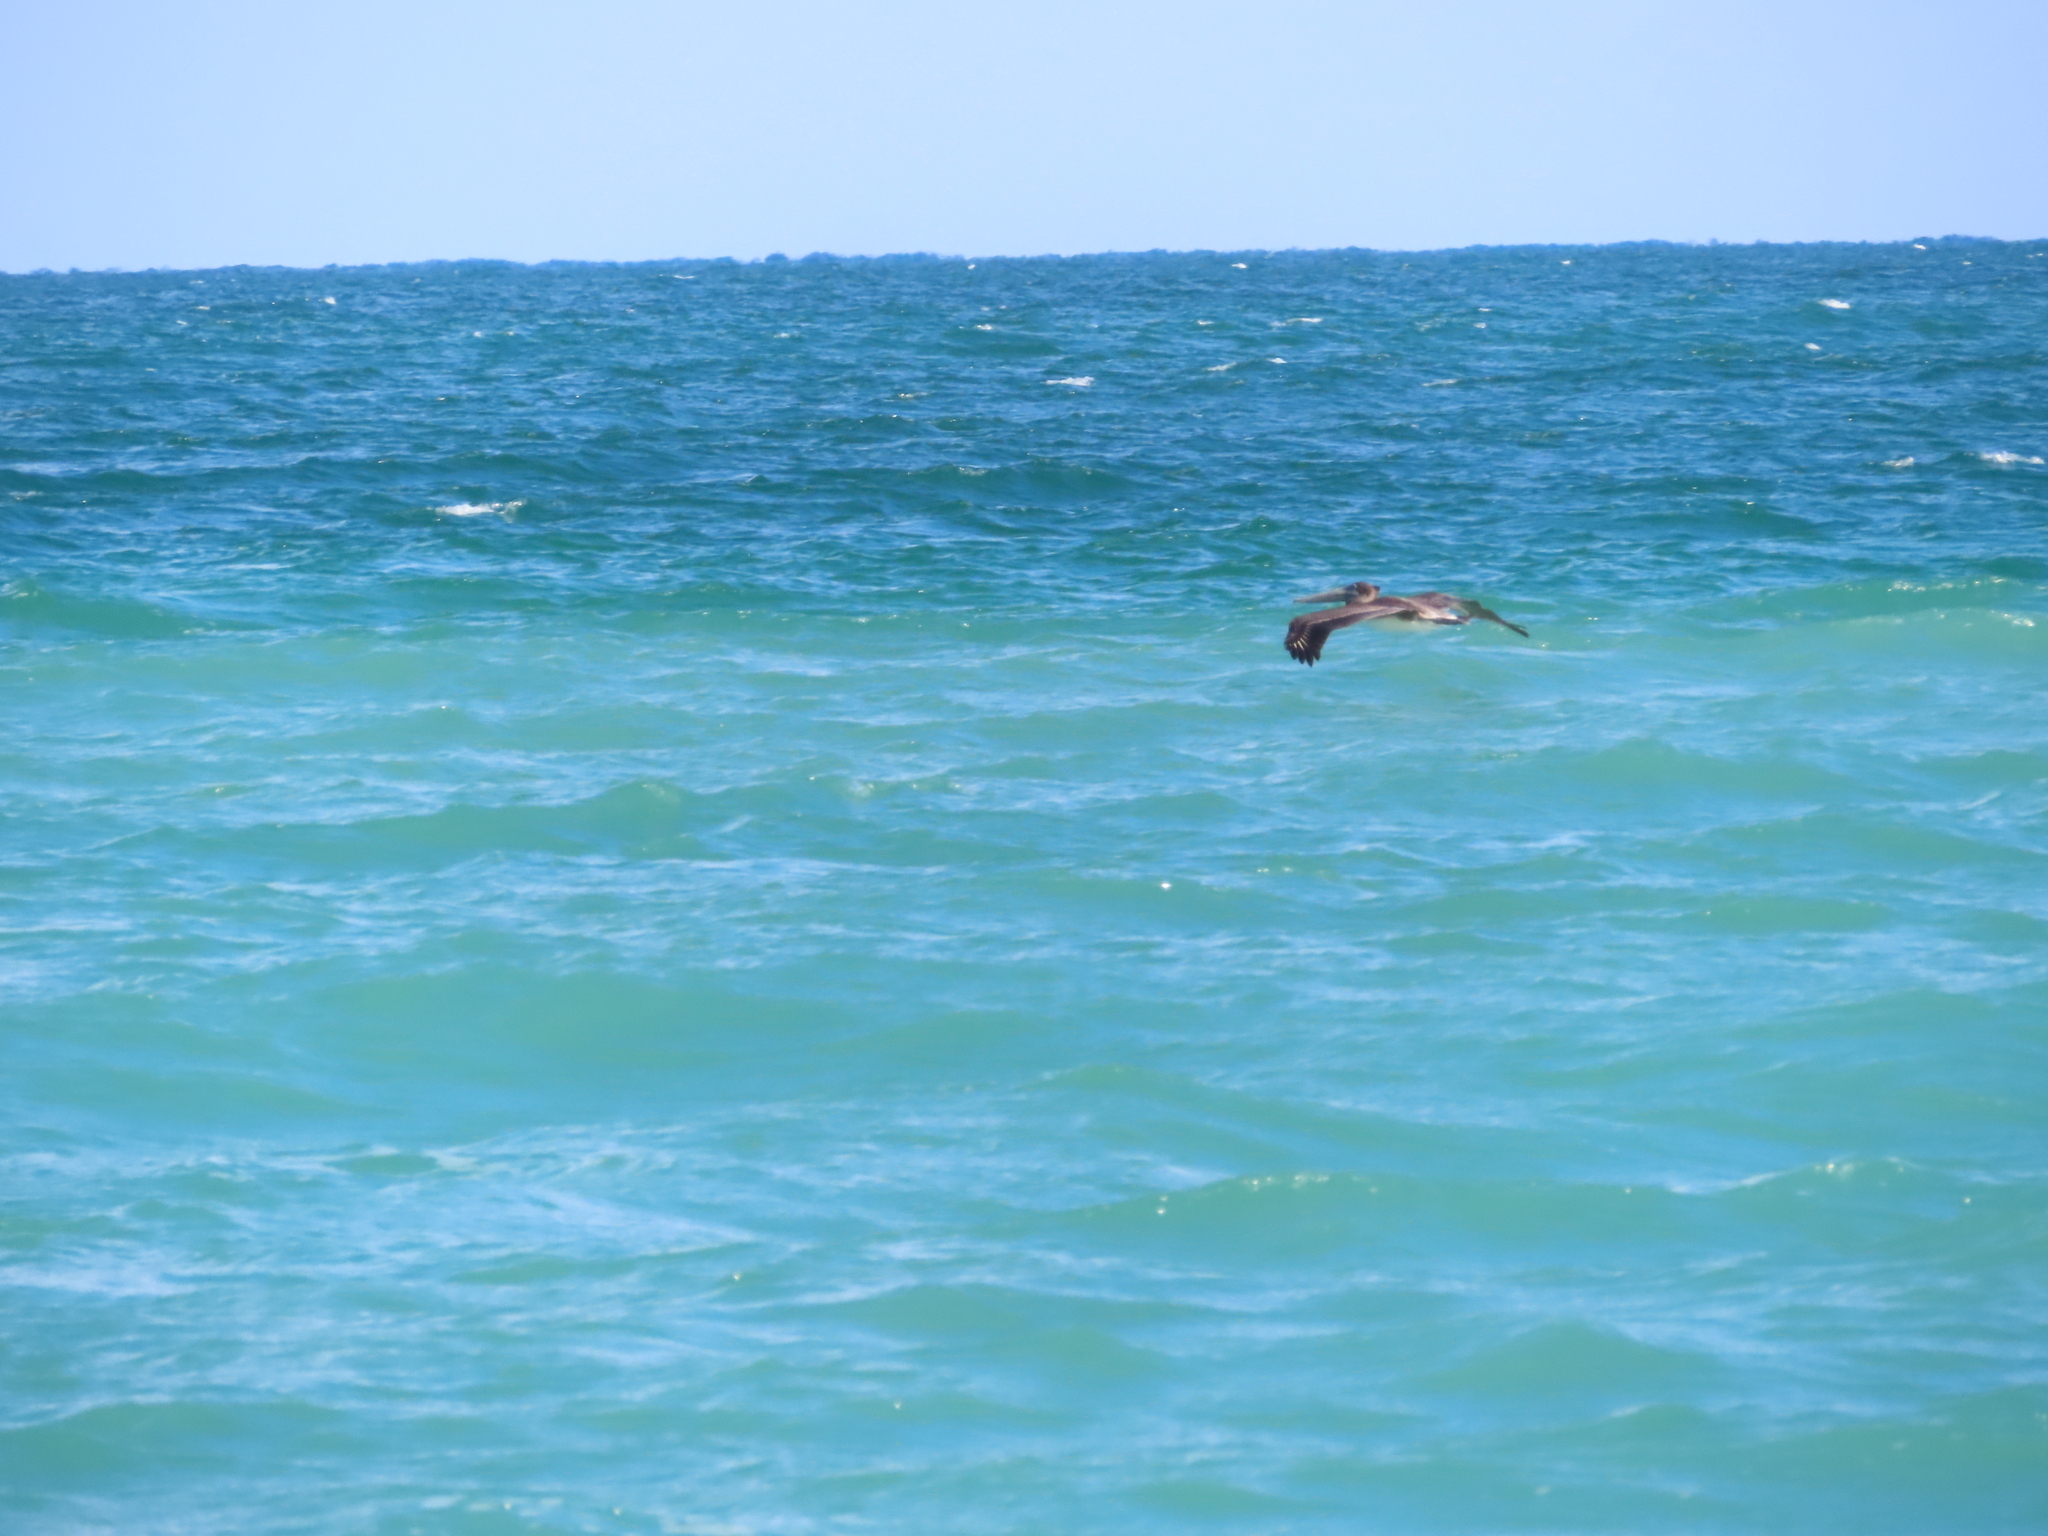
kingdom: Animalia
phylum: Chordata
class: Aves
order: Pelecaniformes
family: Pelecanidae
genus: Pelecanus
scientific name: Pelecanus occidentalis
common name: Brown pelican
